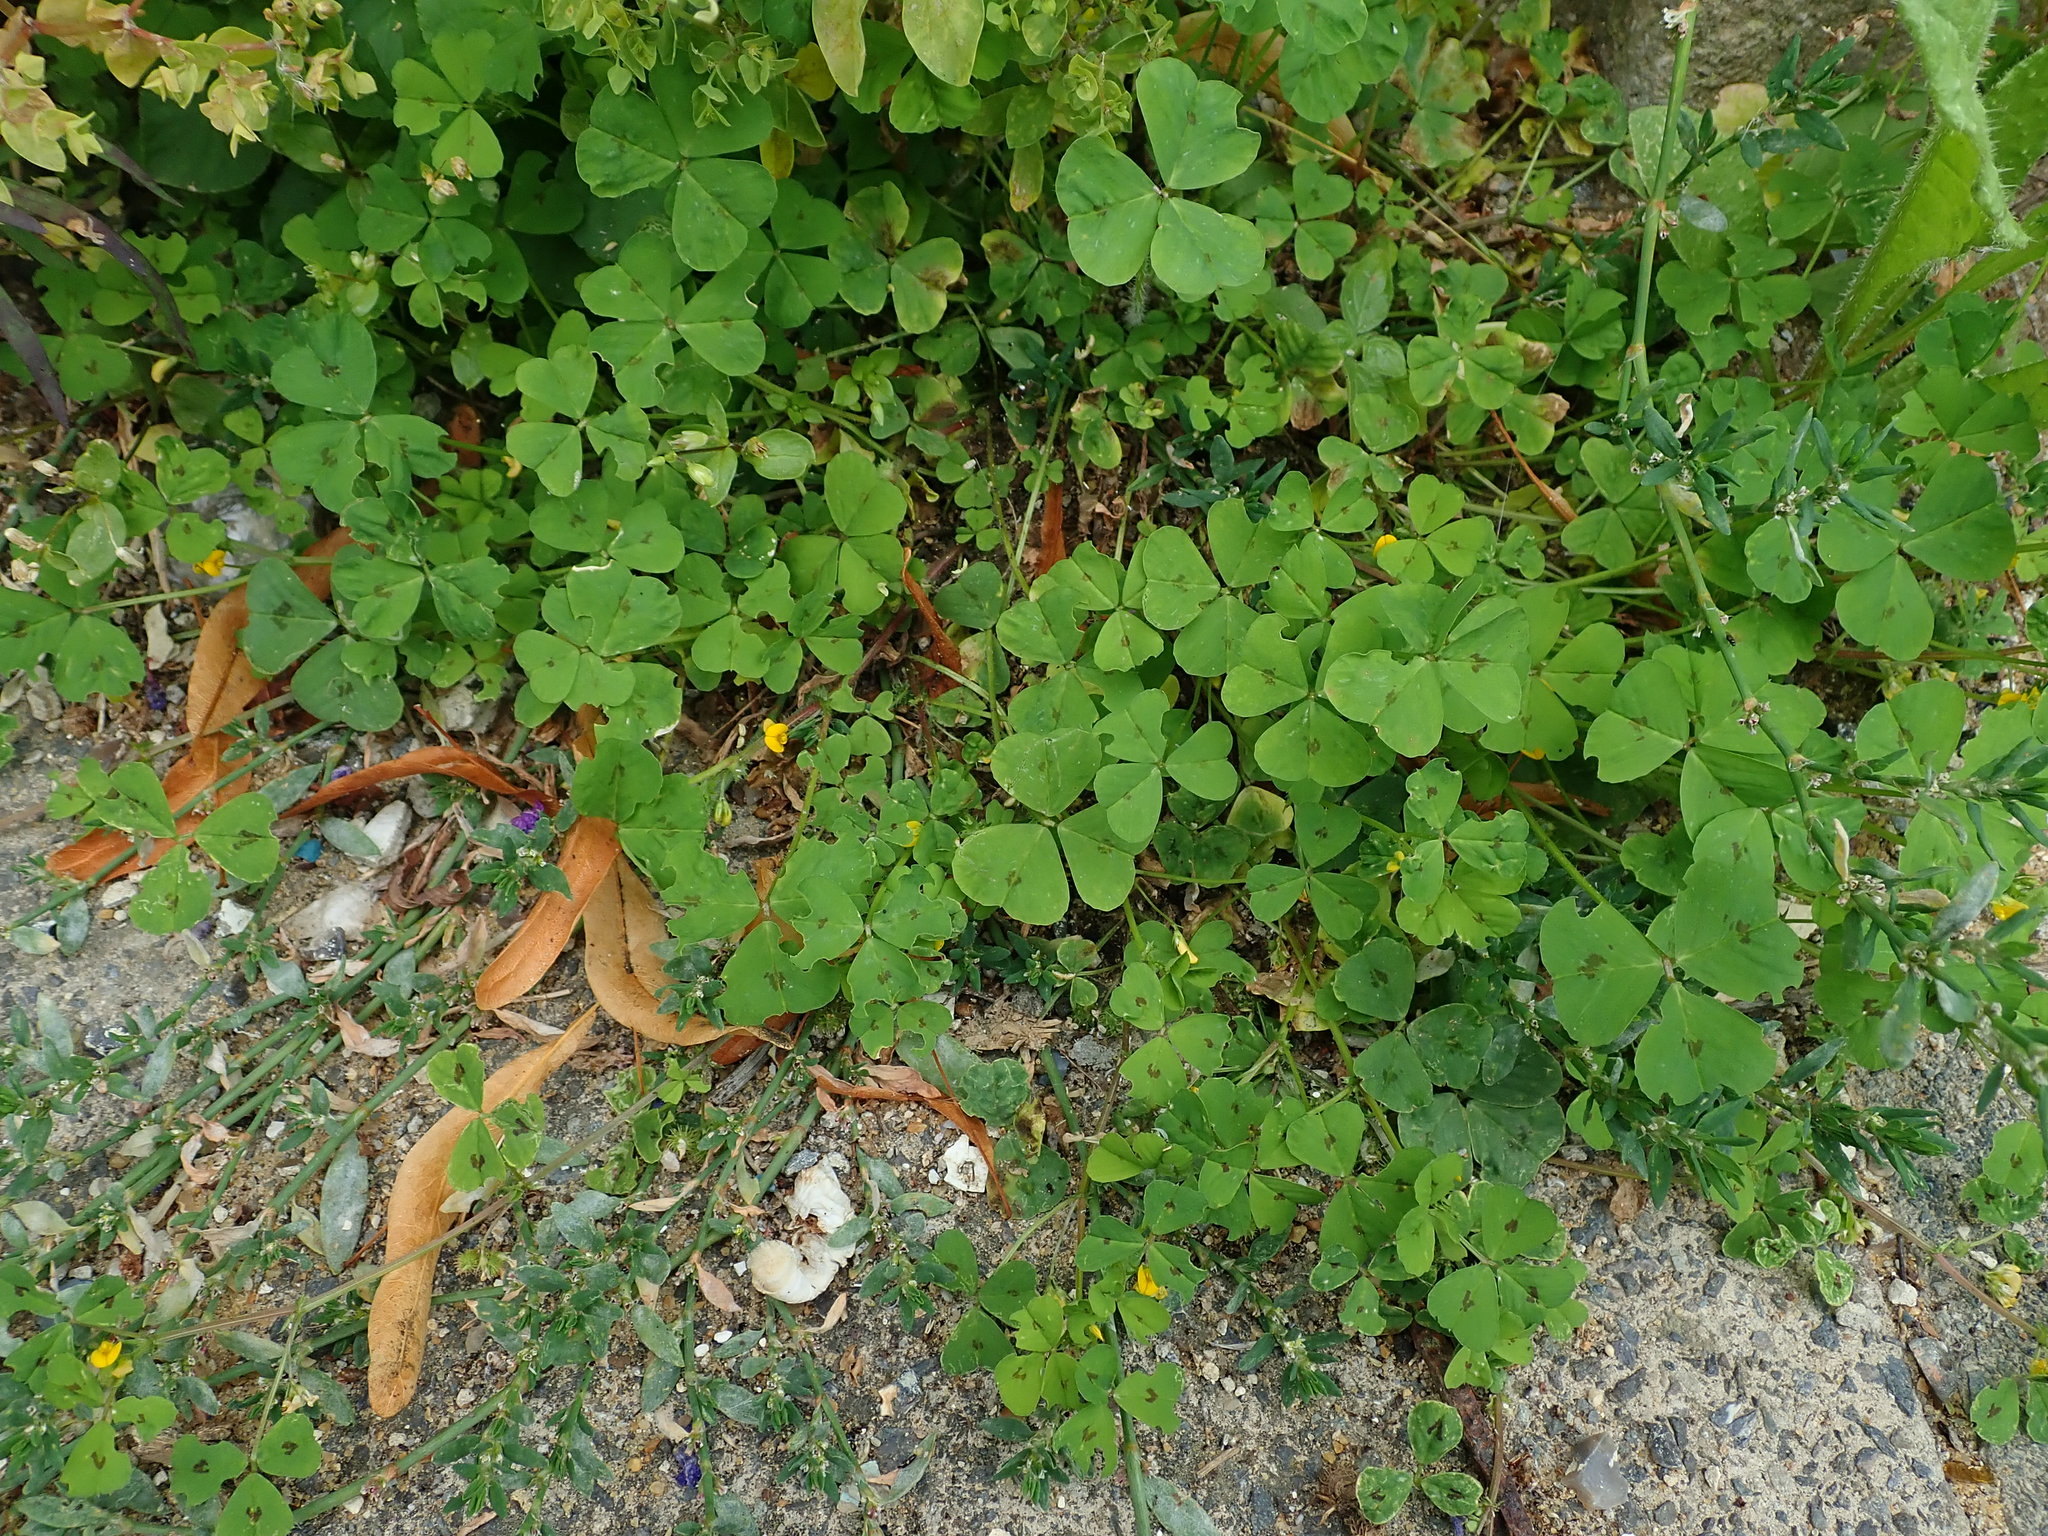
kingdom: Plantae
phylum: Tracheophyta
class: Magnoliopsida
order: Fabales
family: Fabaceae
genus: Medicago
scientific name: Medicago arabica
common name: Spotted medick
